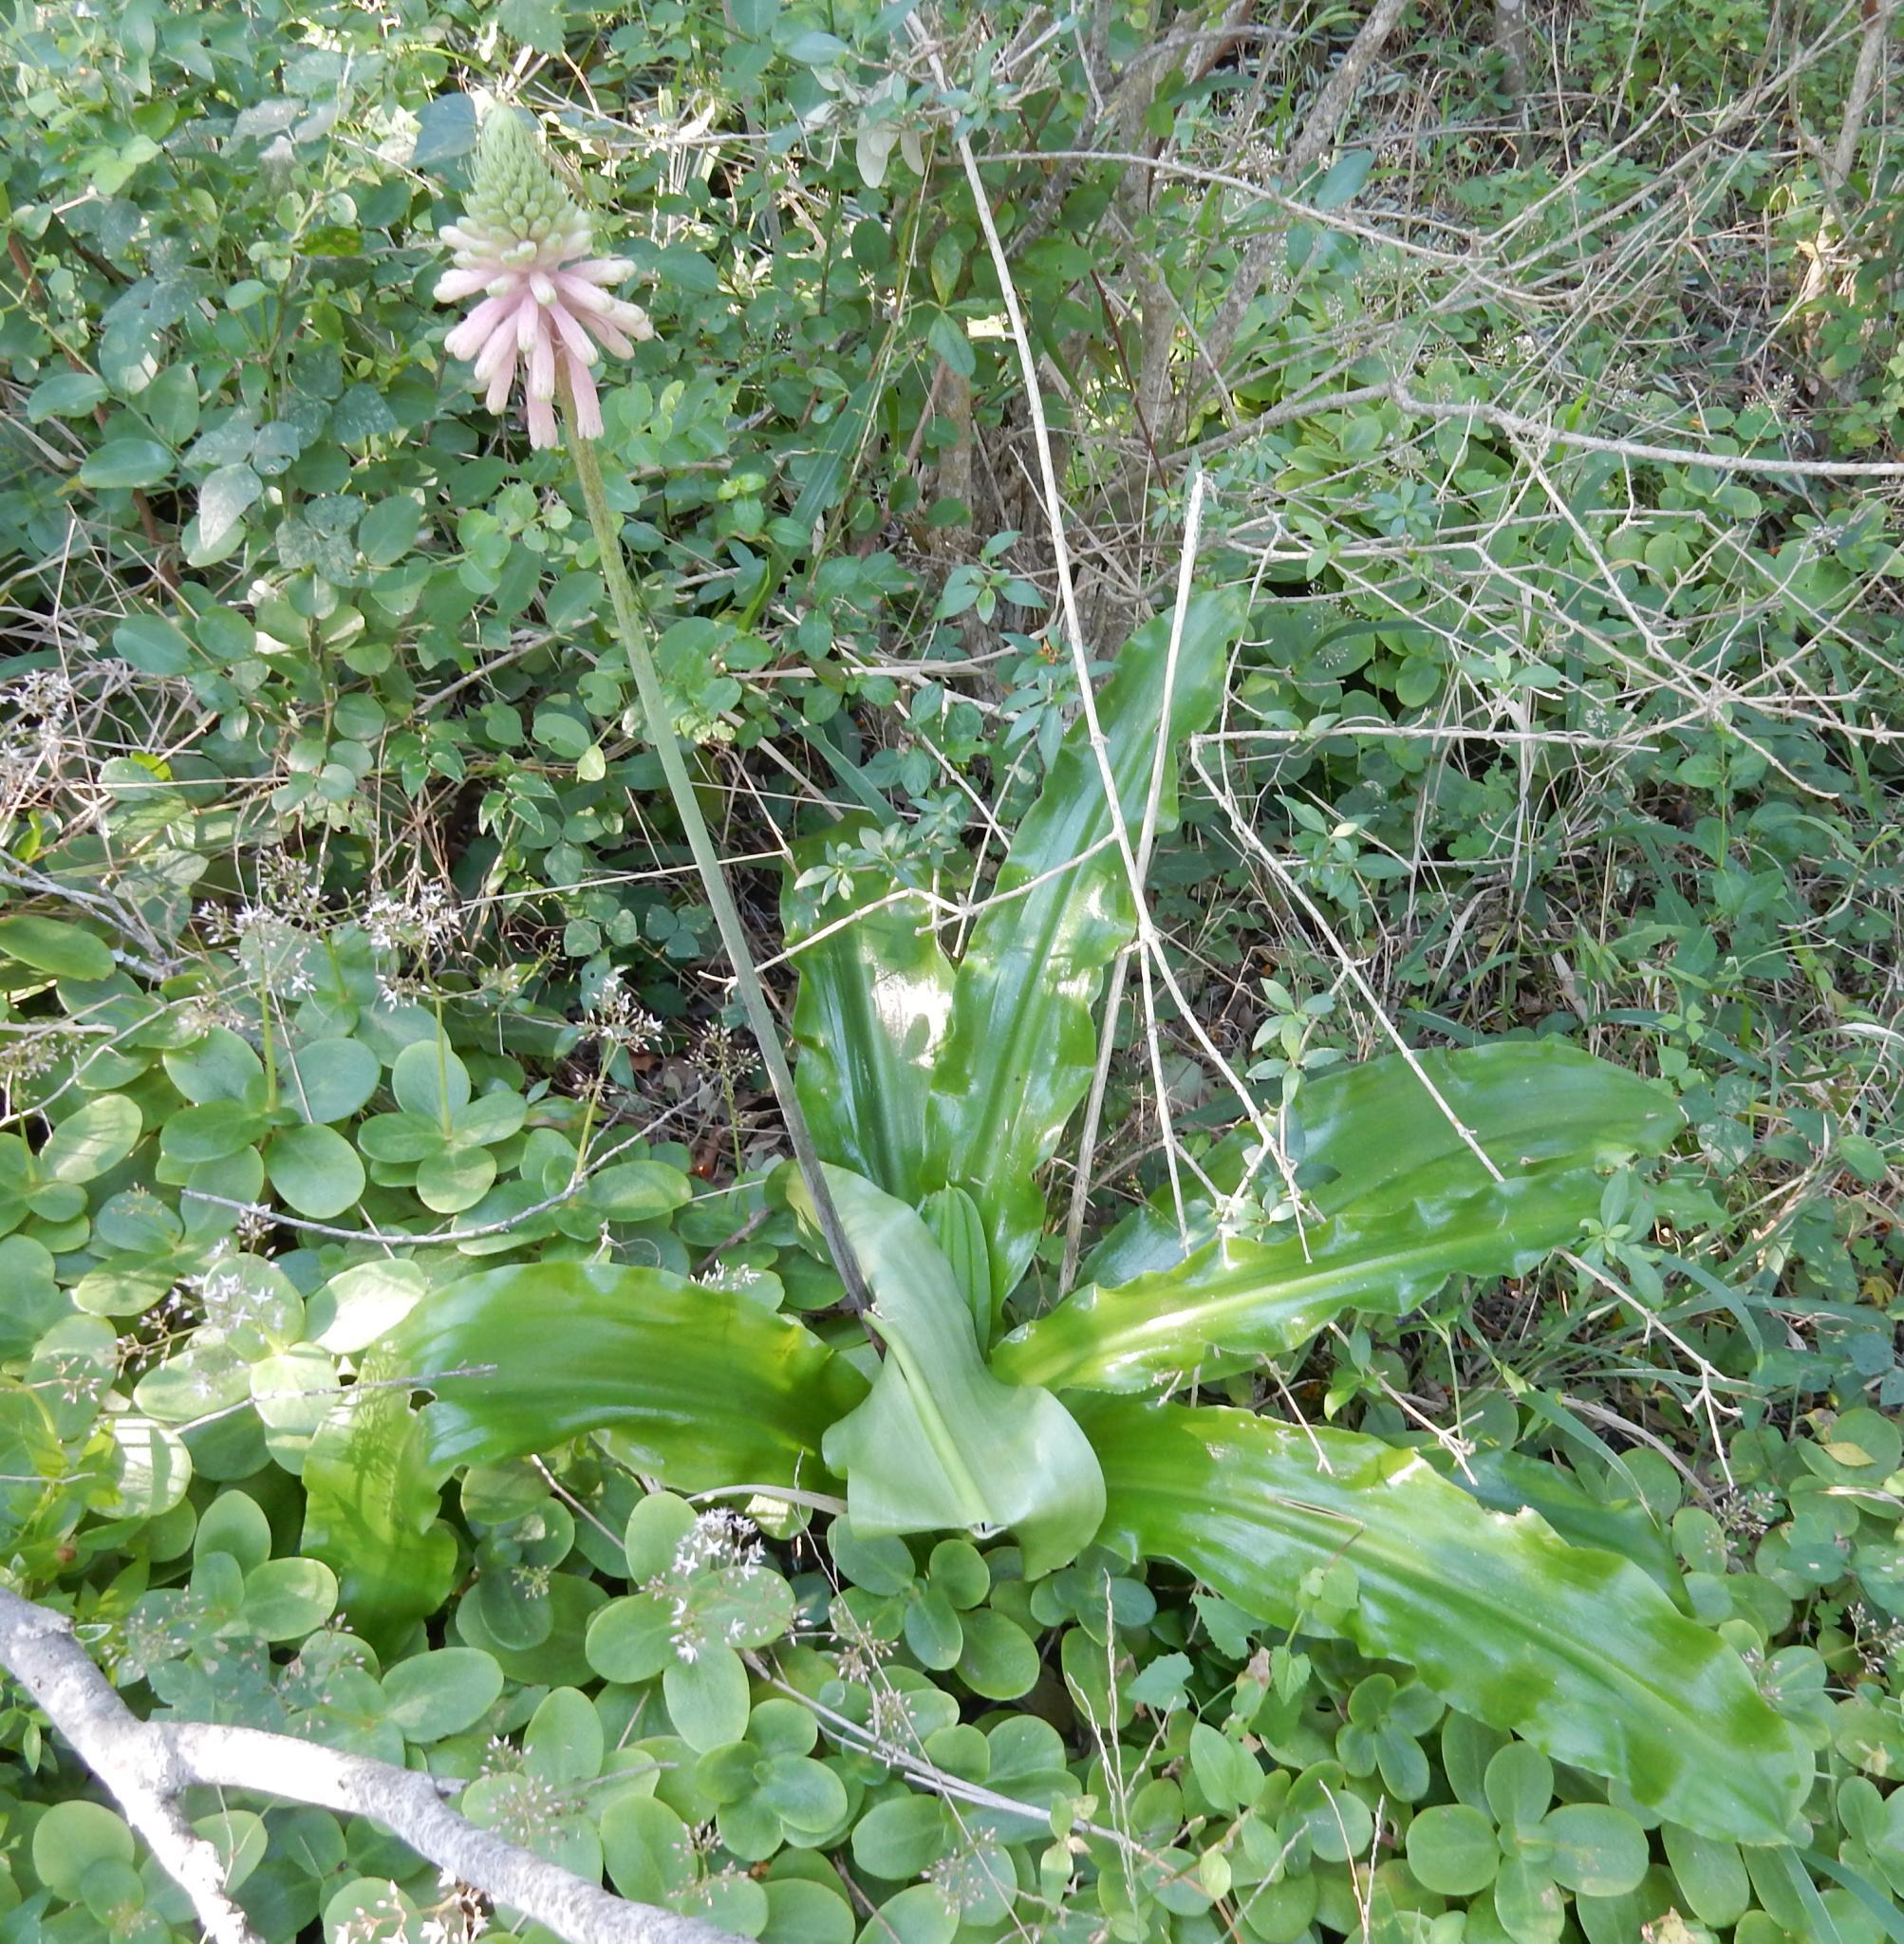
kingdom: Plantae
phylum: Tracheophyta
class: Liliopsida
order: Asparagales
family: Asparagaceae
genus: Veltheimia
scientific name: Veltheimia bracteata
